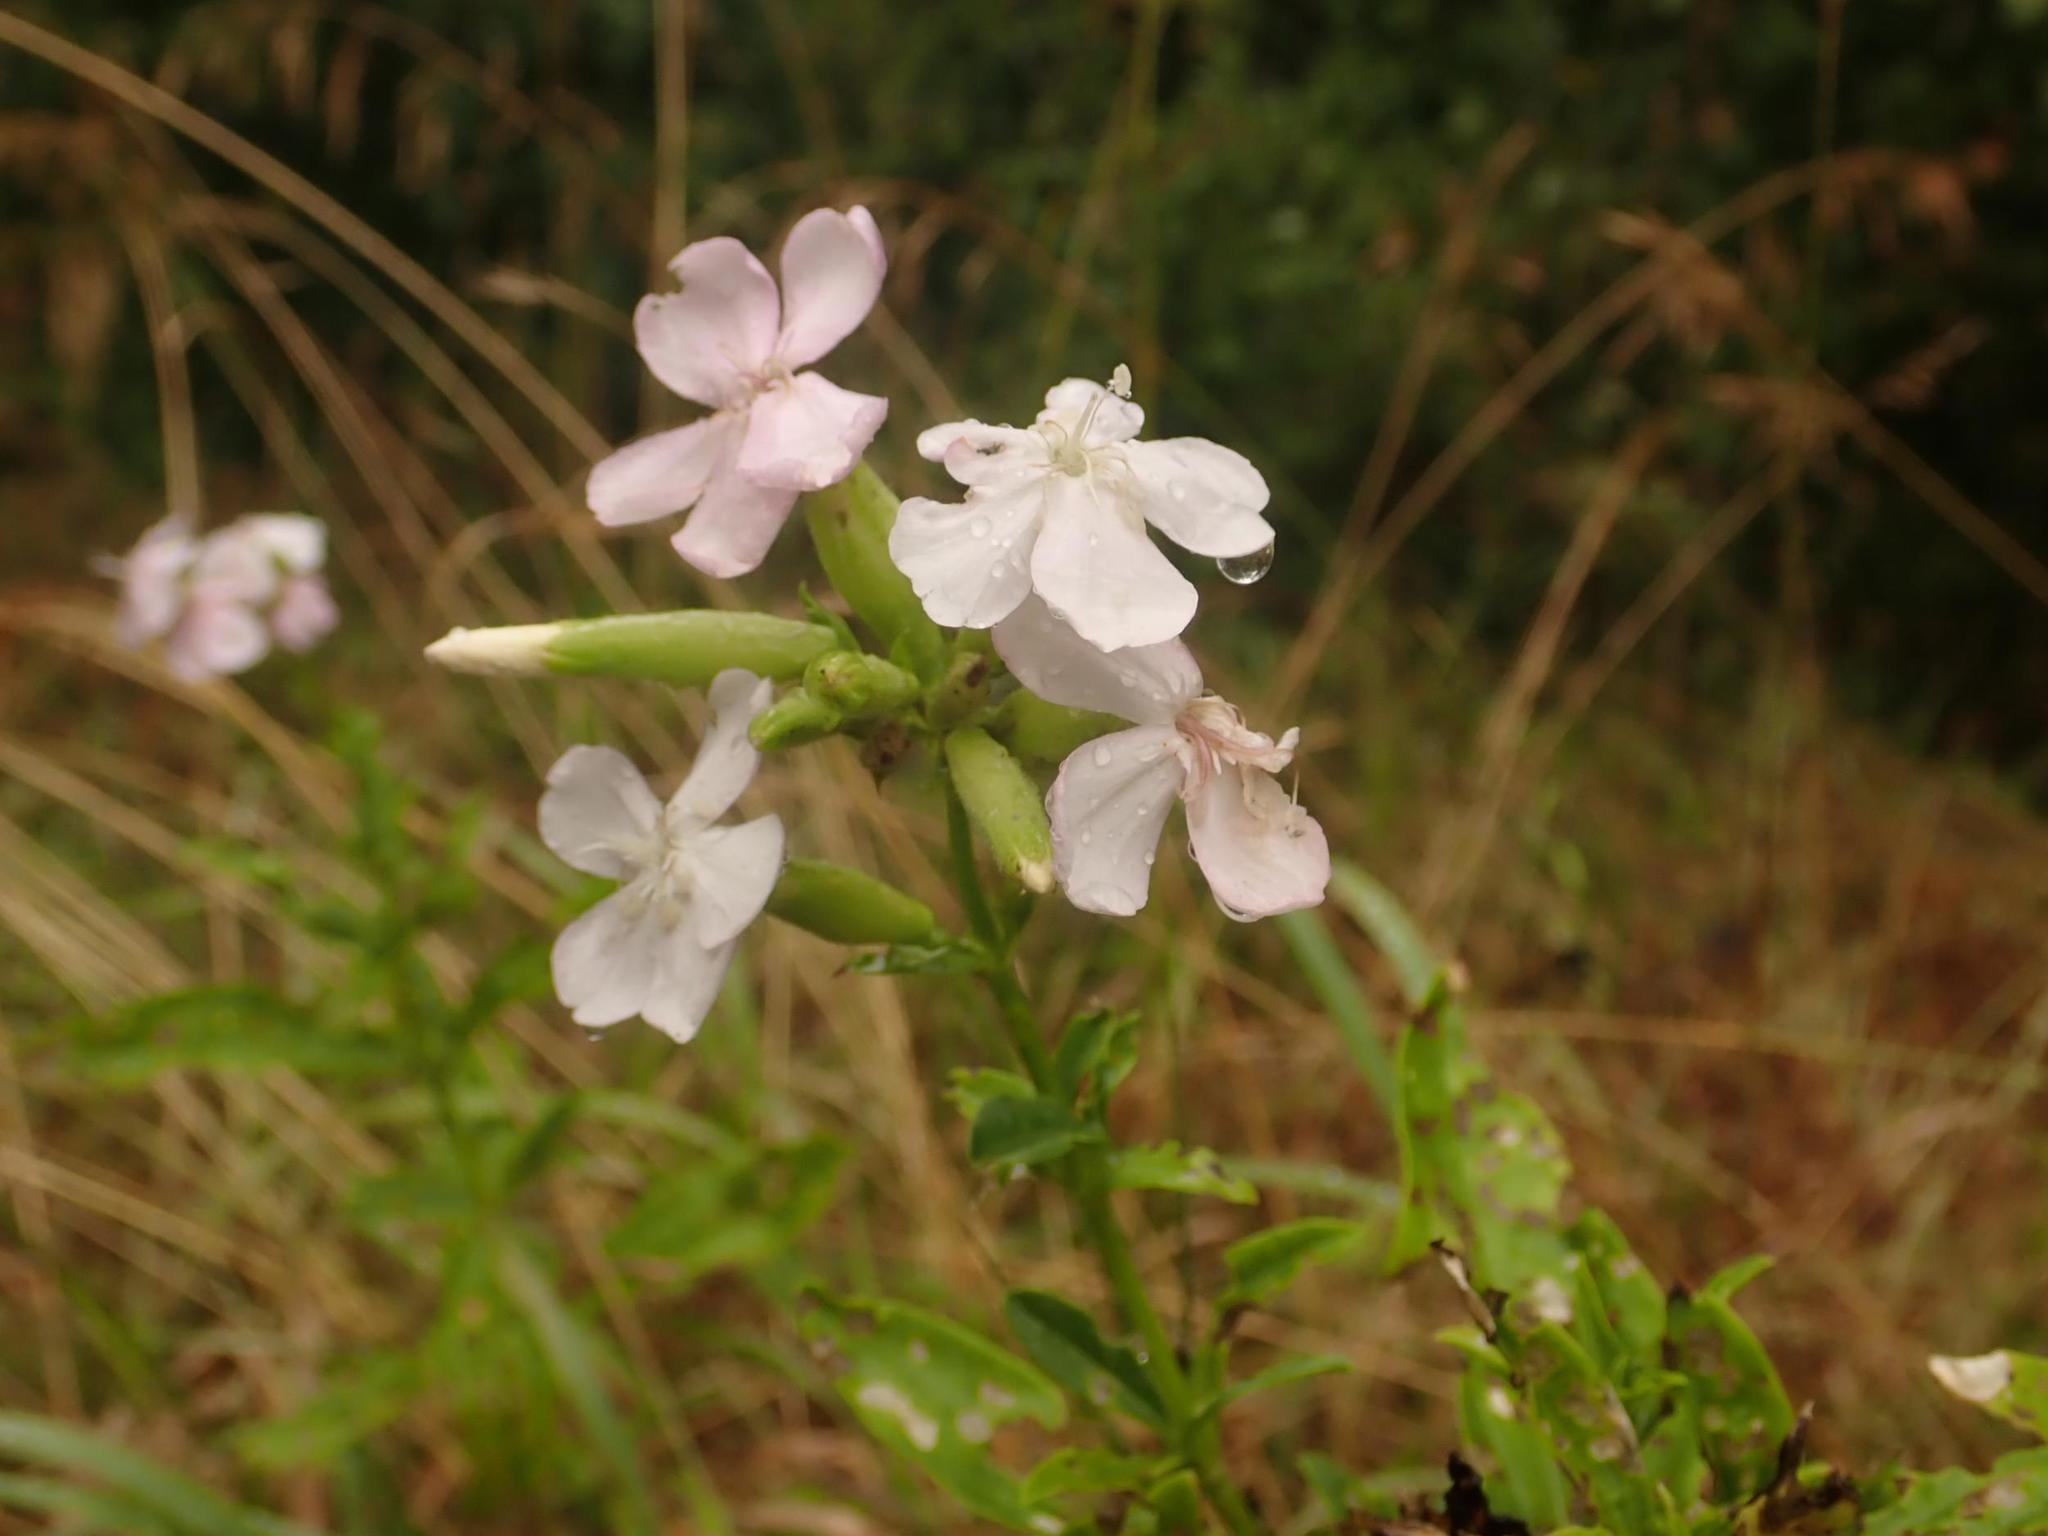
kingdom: Plantae
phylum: Tracheophyta
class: Magnoliopsida
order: Caryophyllales
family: Caryophyllaceae
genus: Saponaria
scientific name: Saponaria officinalis
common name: Soapwort
